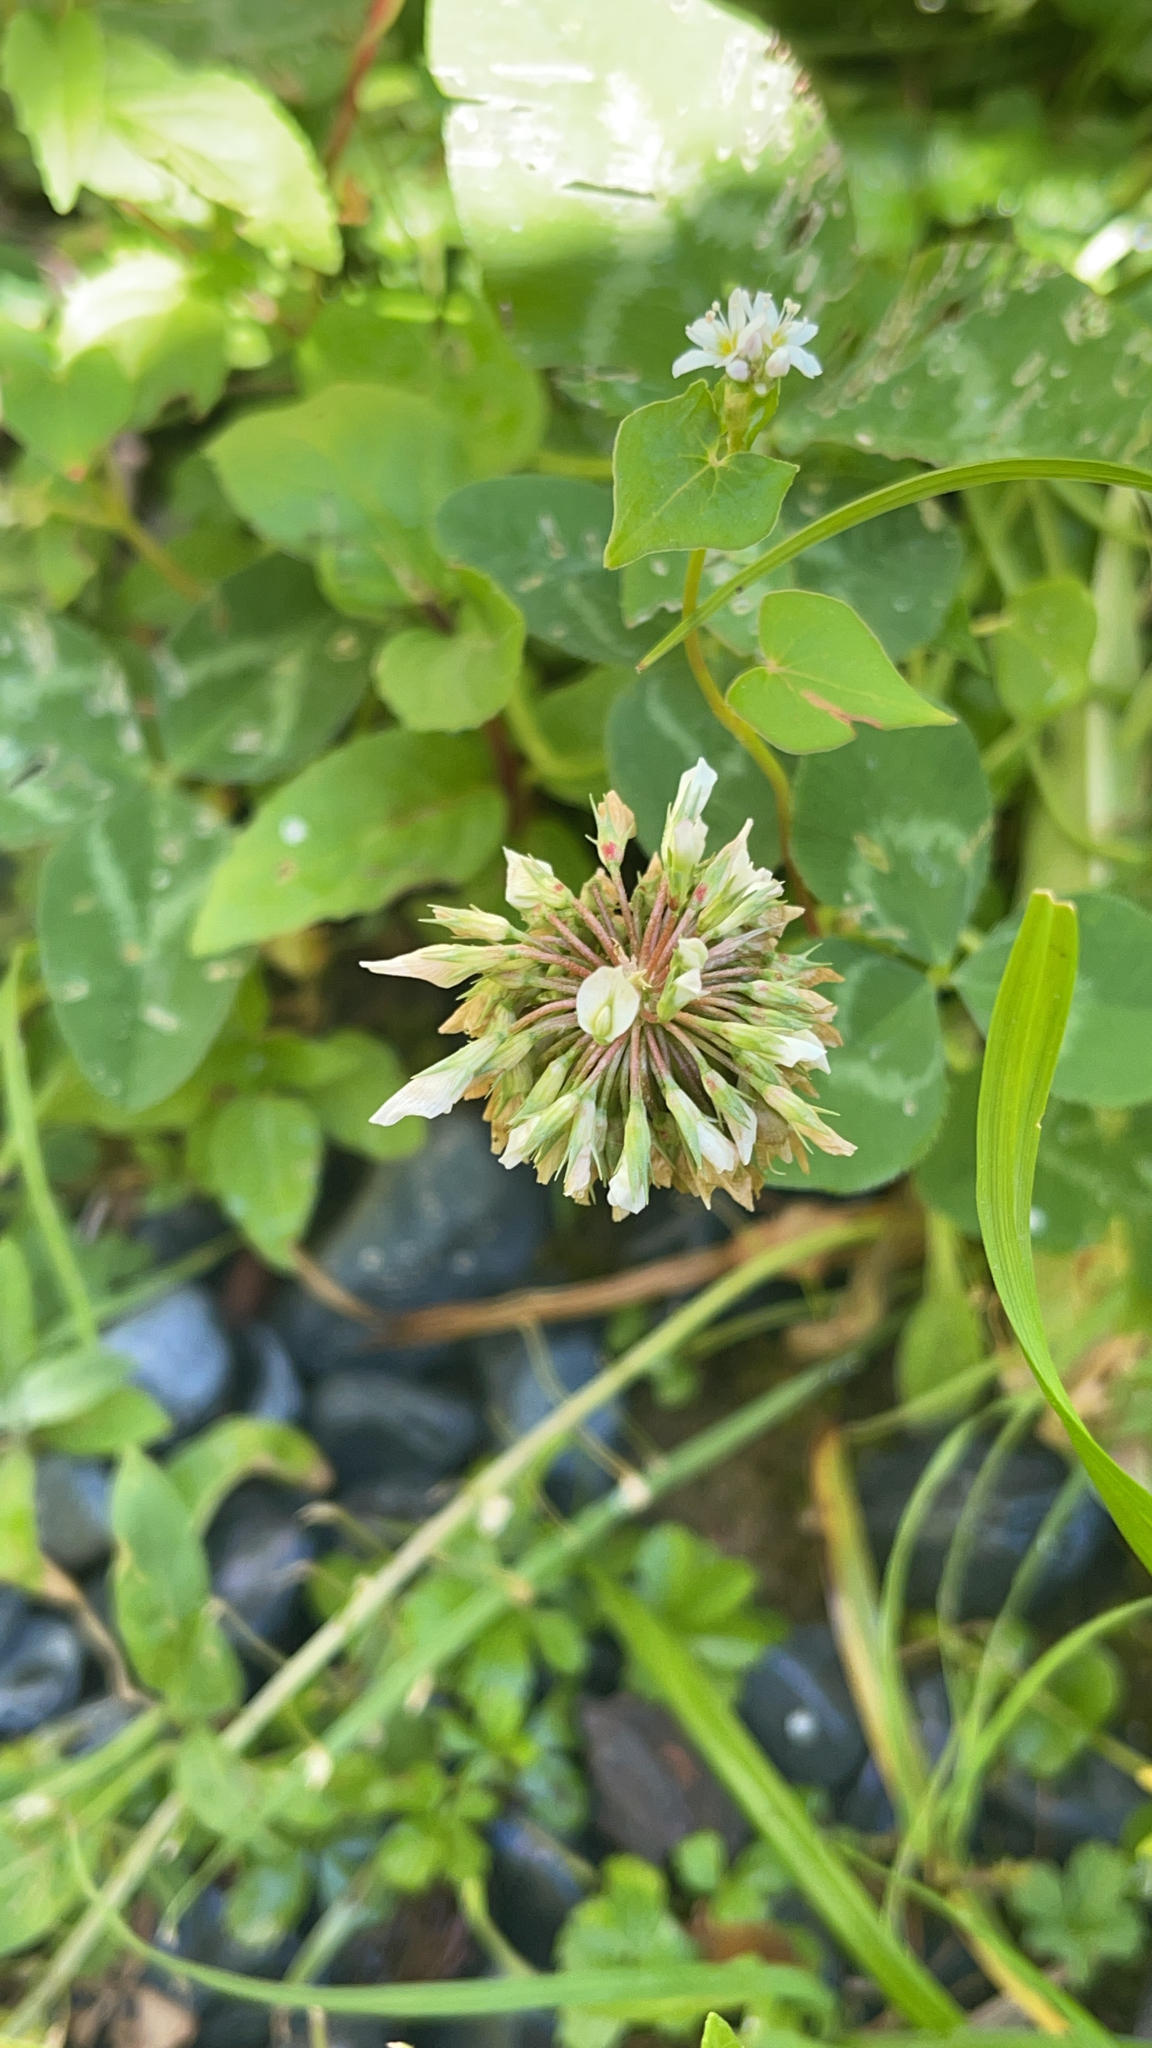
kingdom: Plantae
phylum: Tracheophyta
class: Magnoliopsida
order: Fabales
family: Fabaceae
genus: Trifolium
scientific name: Trifolium repens
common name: White clover
